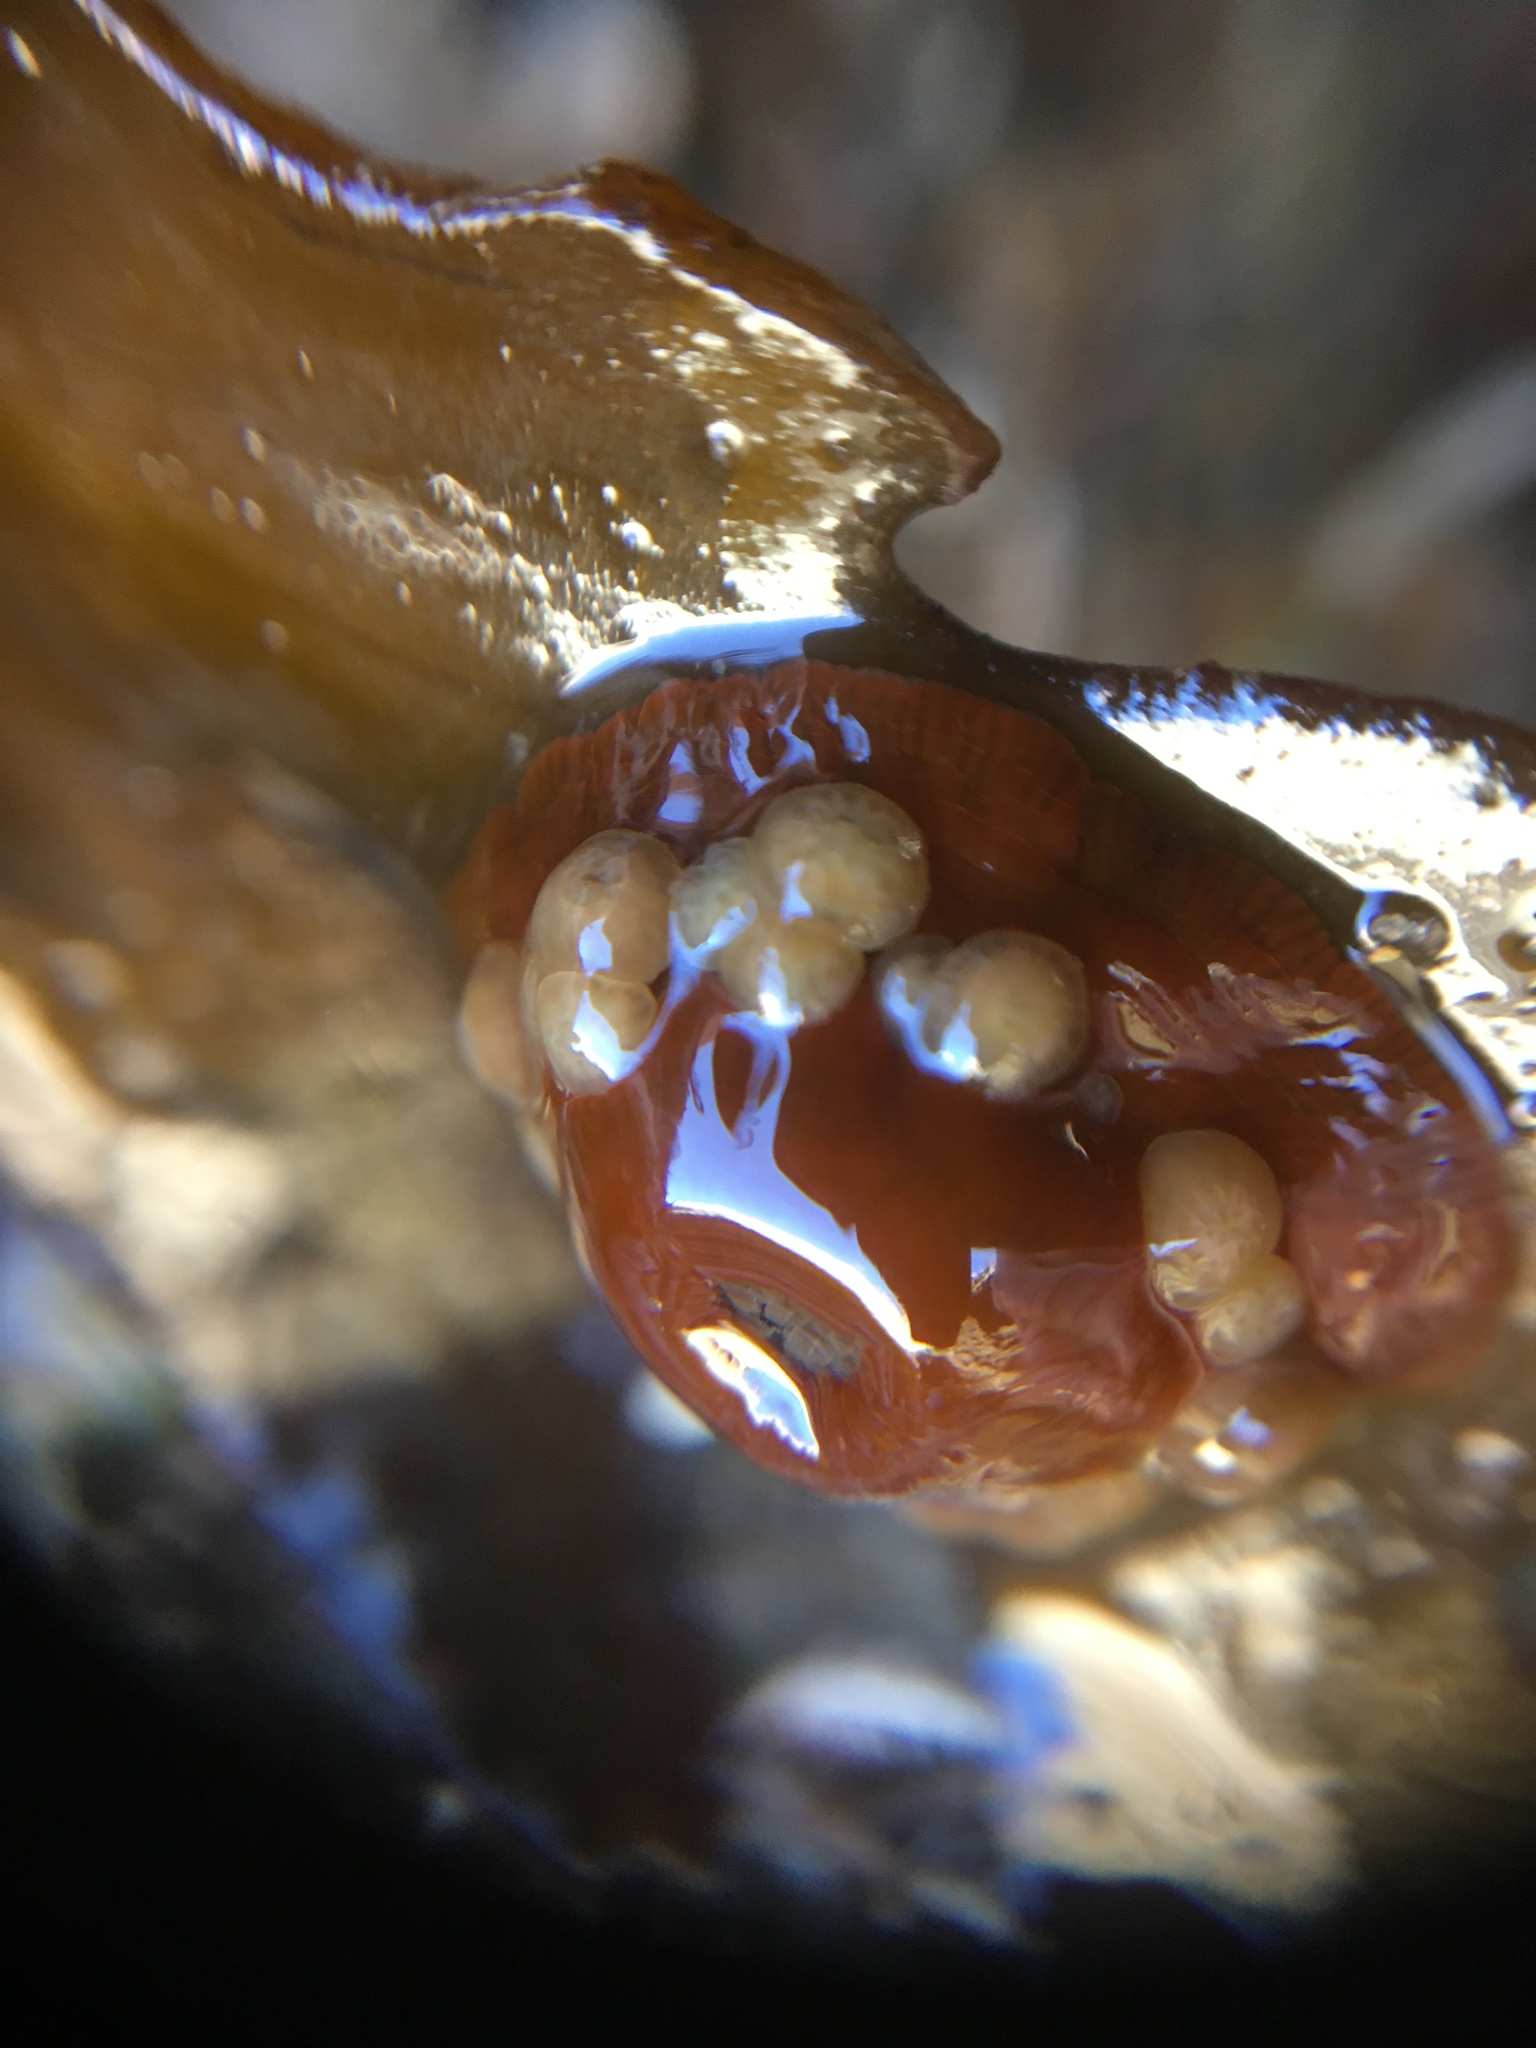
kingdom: Animalia
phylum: Cnidaria
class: Anthozoa
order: Actiniaria
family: Actiniidae
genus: Epiactis
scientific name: Epiactis prolifera
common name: Brooding anemone
